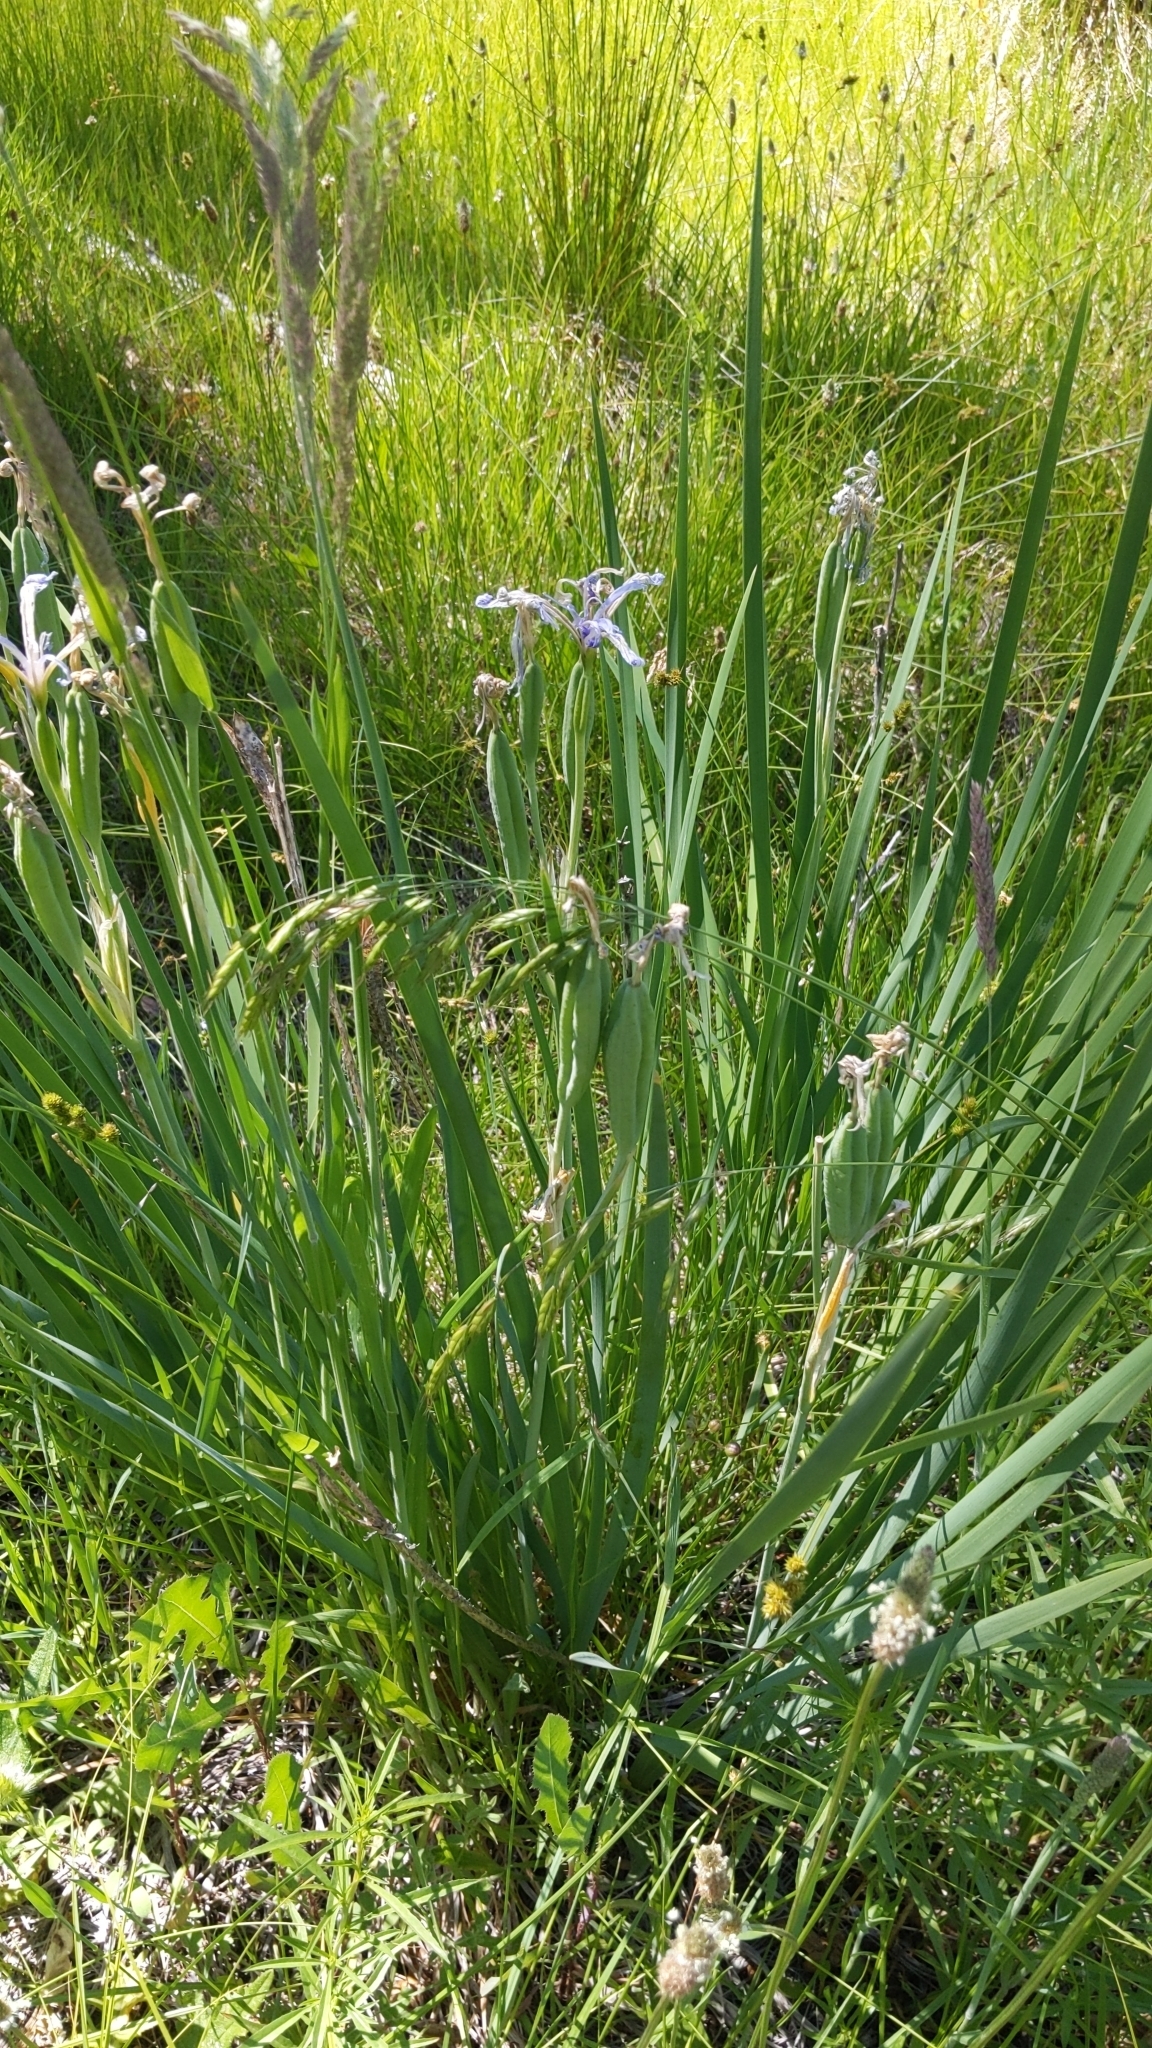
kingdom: Plantae
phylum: Tracheophyta
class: Liliopsida
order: Asparagales
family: Iridaceae
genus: Iris
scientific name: Iris missouriensis
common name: Rocky mountain iris
